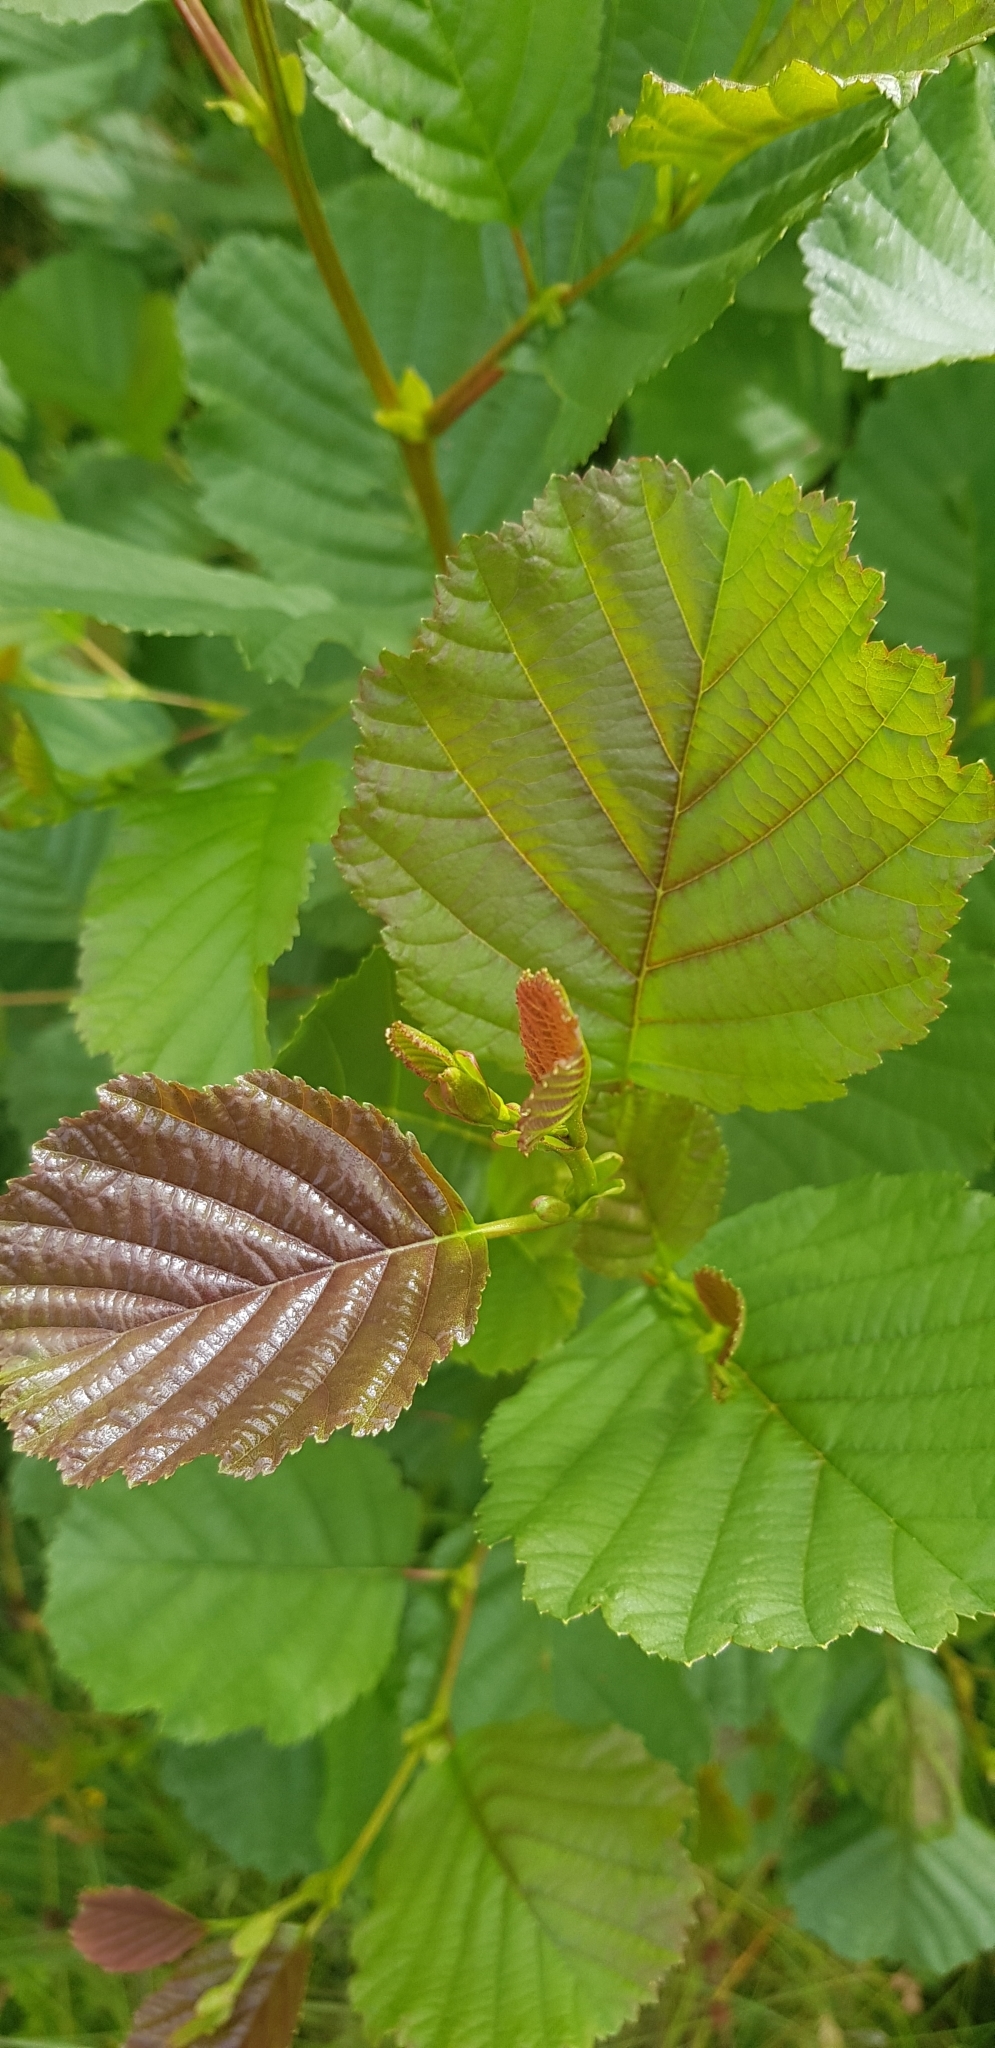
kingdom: Plantae
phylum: Tracheophyta
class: Magnoliopsida
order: Fagales
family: Betulaceae
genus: Alnus
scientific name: Alnus glutinosa
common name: Black alder
